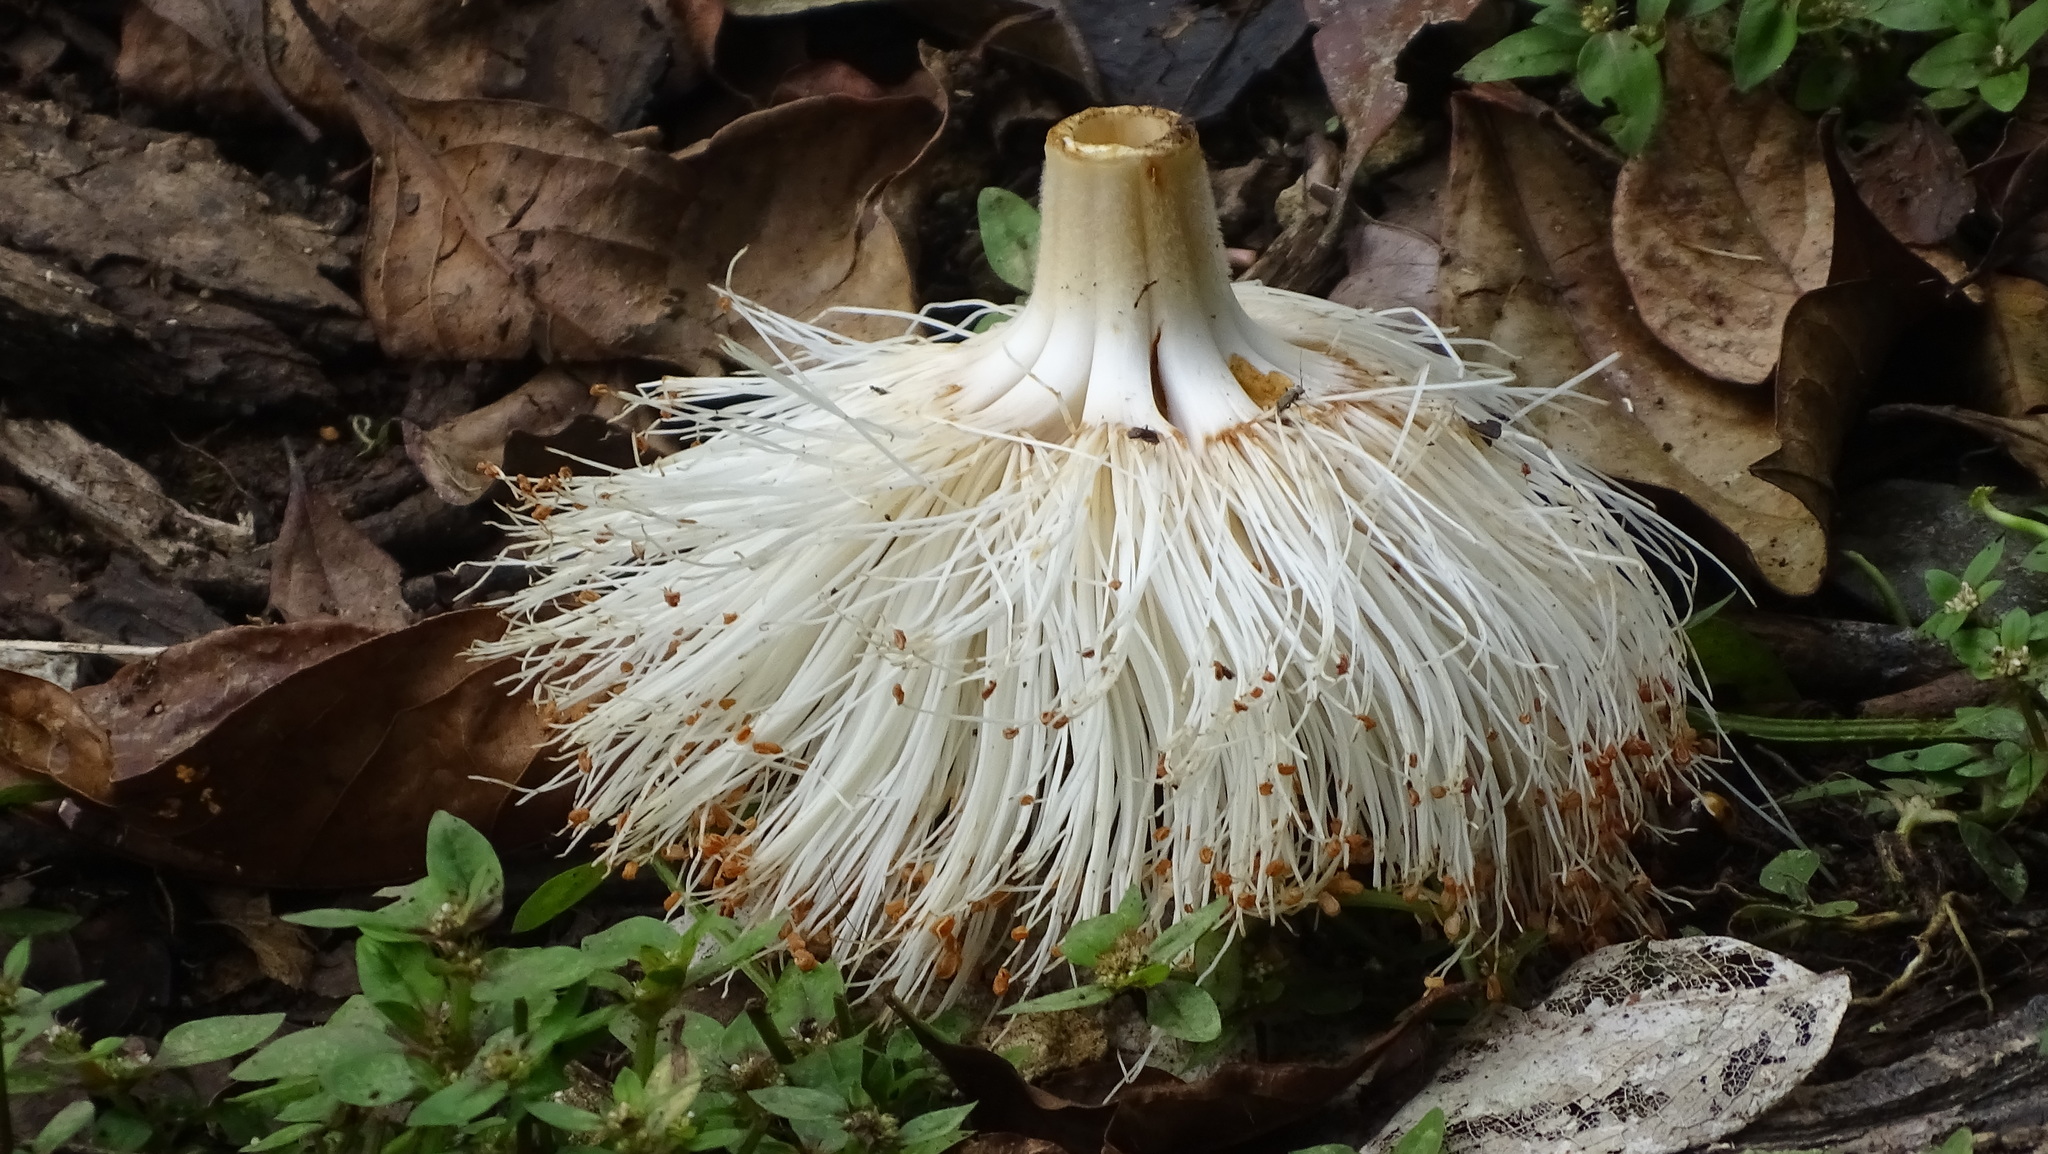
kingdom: Plantae
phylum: Tracheophyta
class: Magnoliopsida
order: Malvales
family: Malvaceae
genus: Pseudobombax
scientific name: Pseudobombax septenatum
